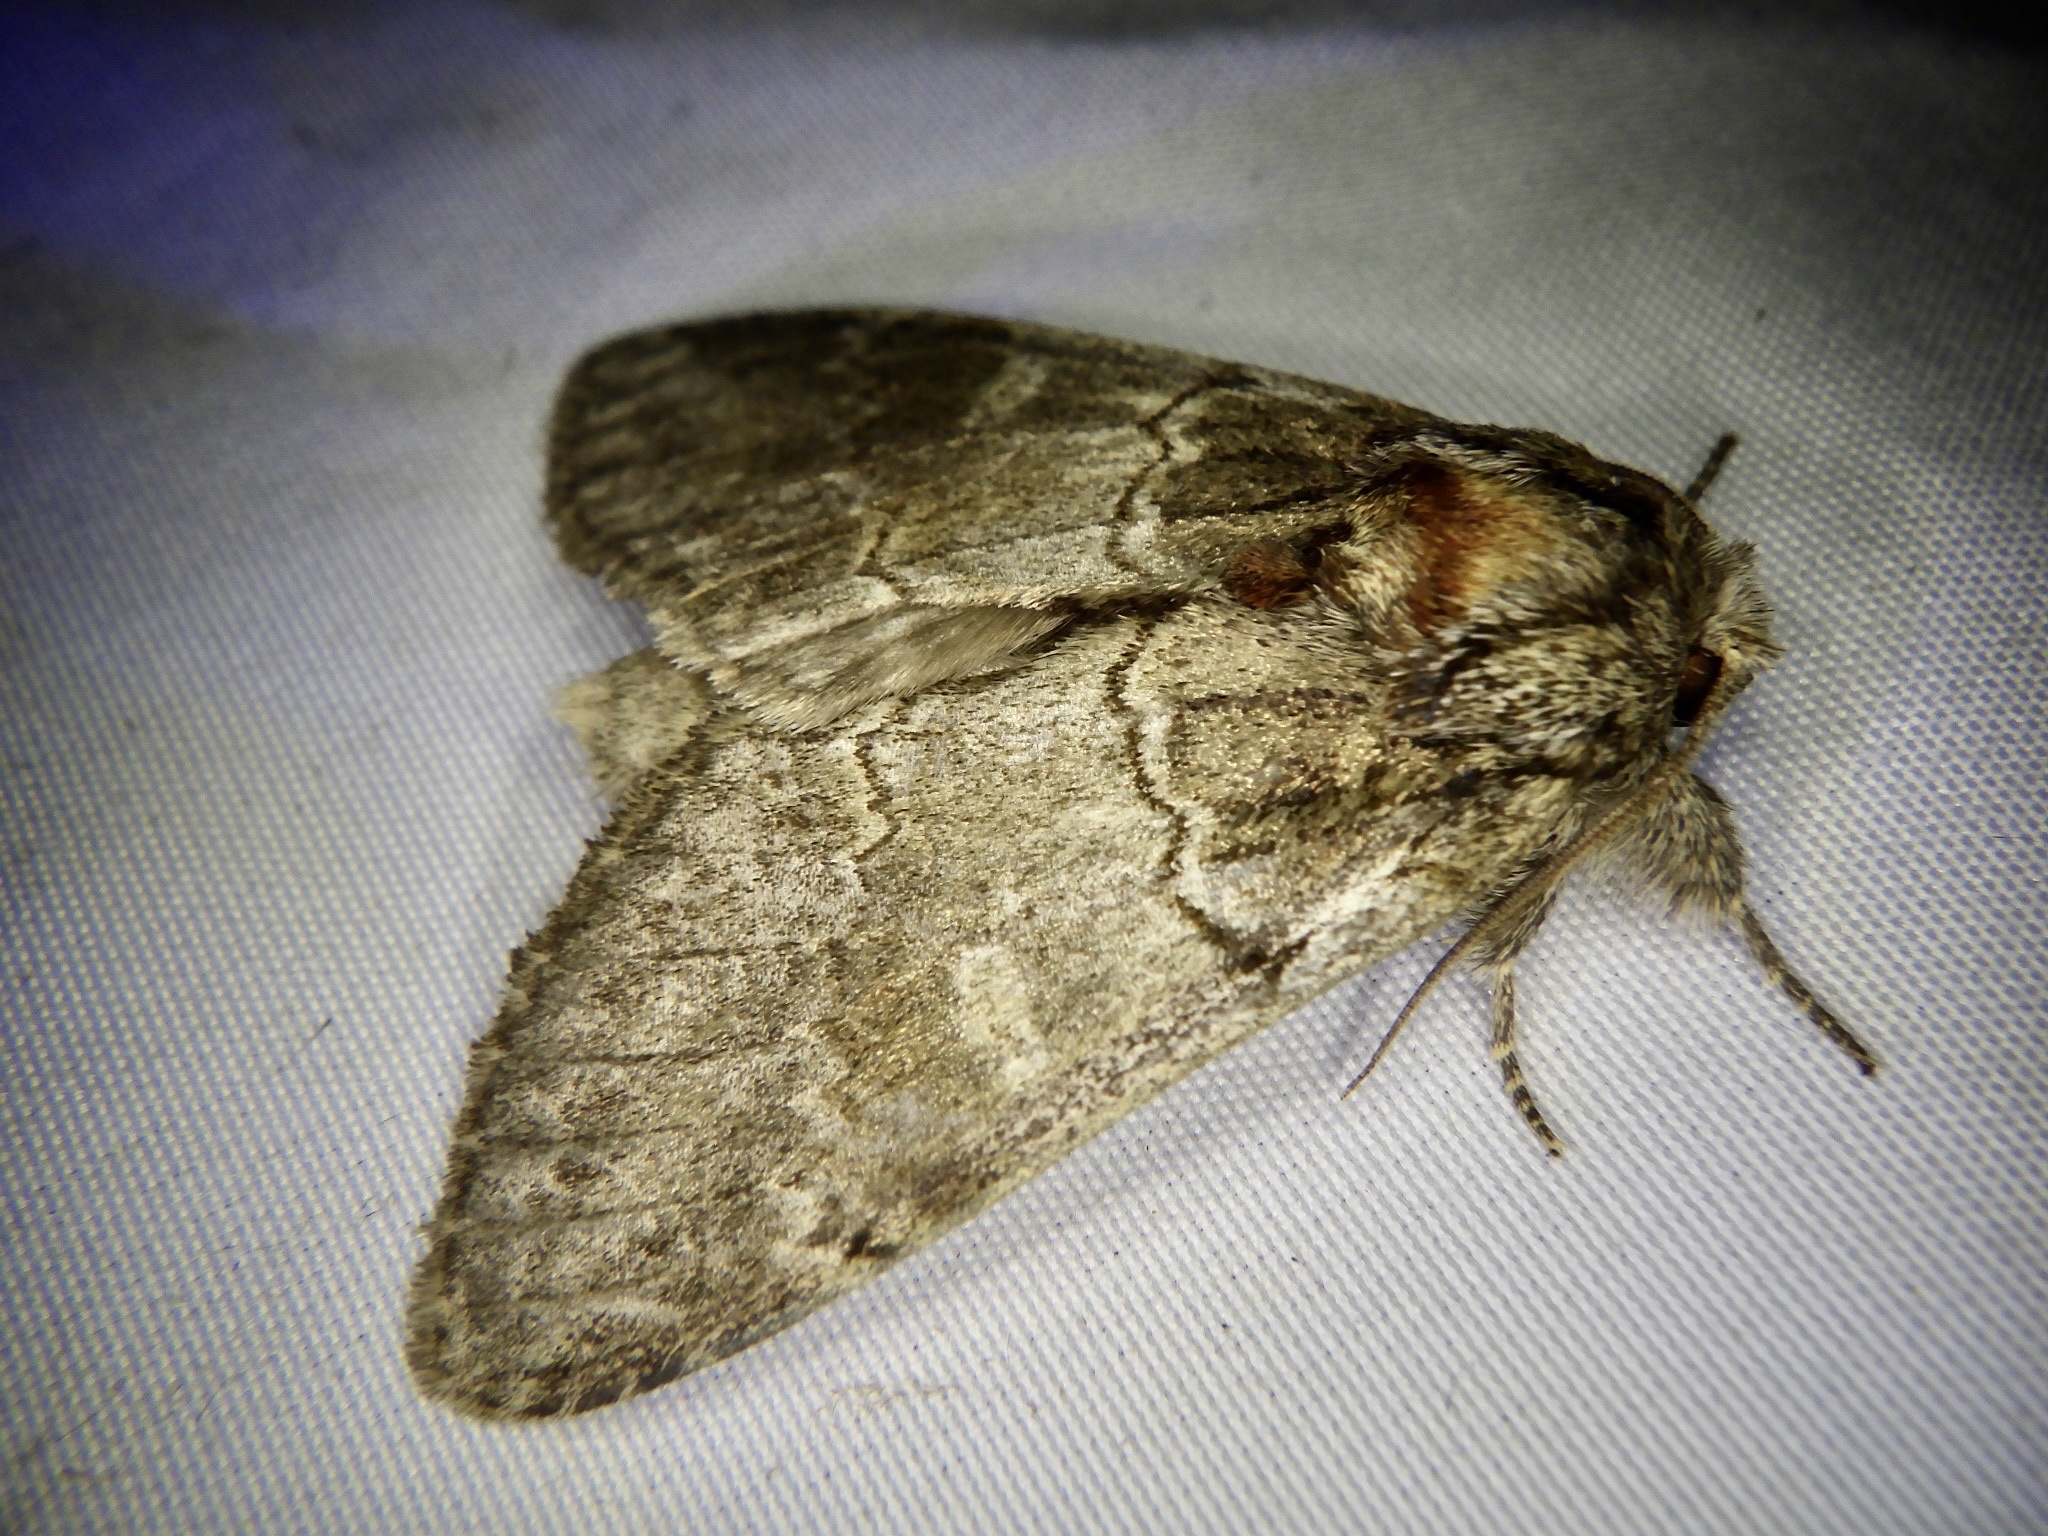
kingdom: Animalia
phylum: Arthropoda
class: Insecta
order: Lepidoptera
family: Notodontidae
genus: Peridea
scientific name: Peridea oberthueri
